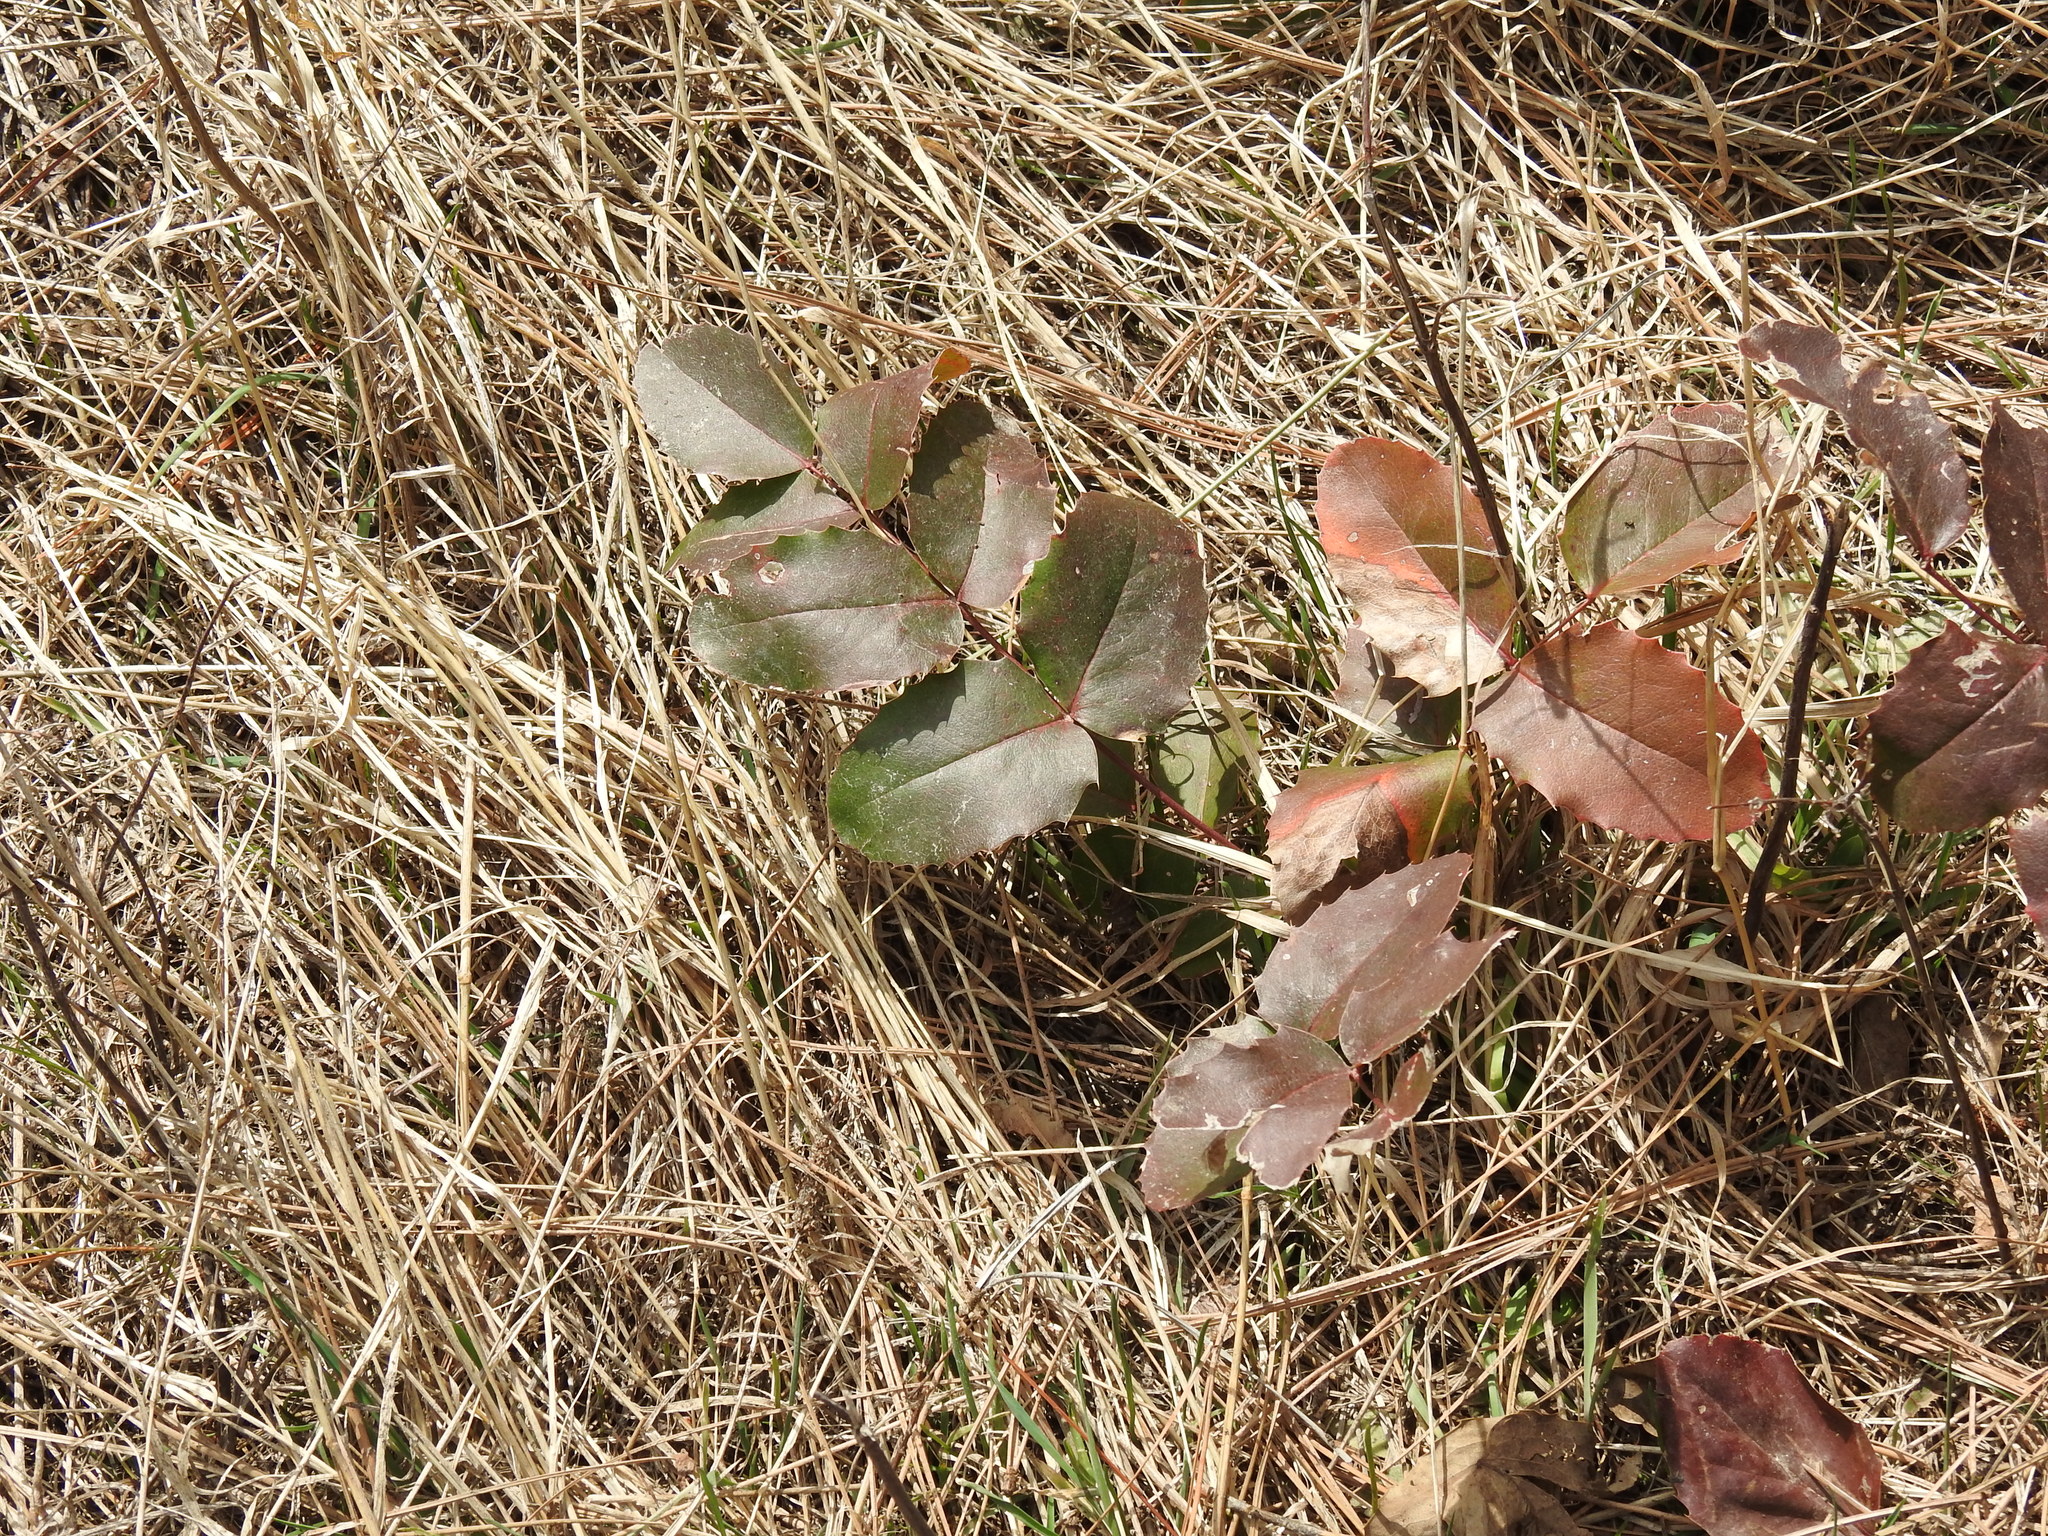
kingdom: Plantae
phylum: Tracheophyta
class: Magnoliopsida
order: Ranunculales
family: Berberidaceae
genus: Mahonia
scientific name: Mahonia repens
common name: Creeping oregon-grape
